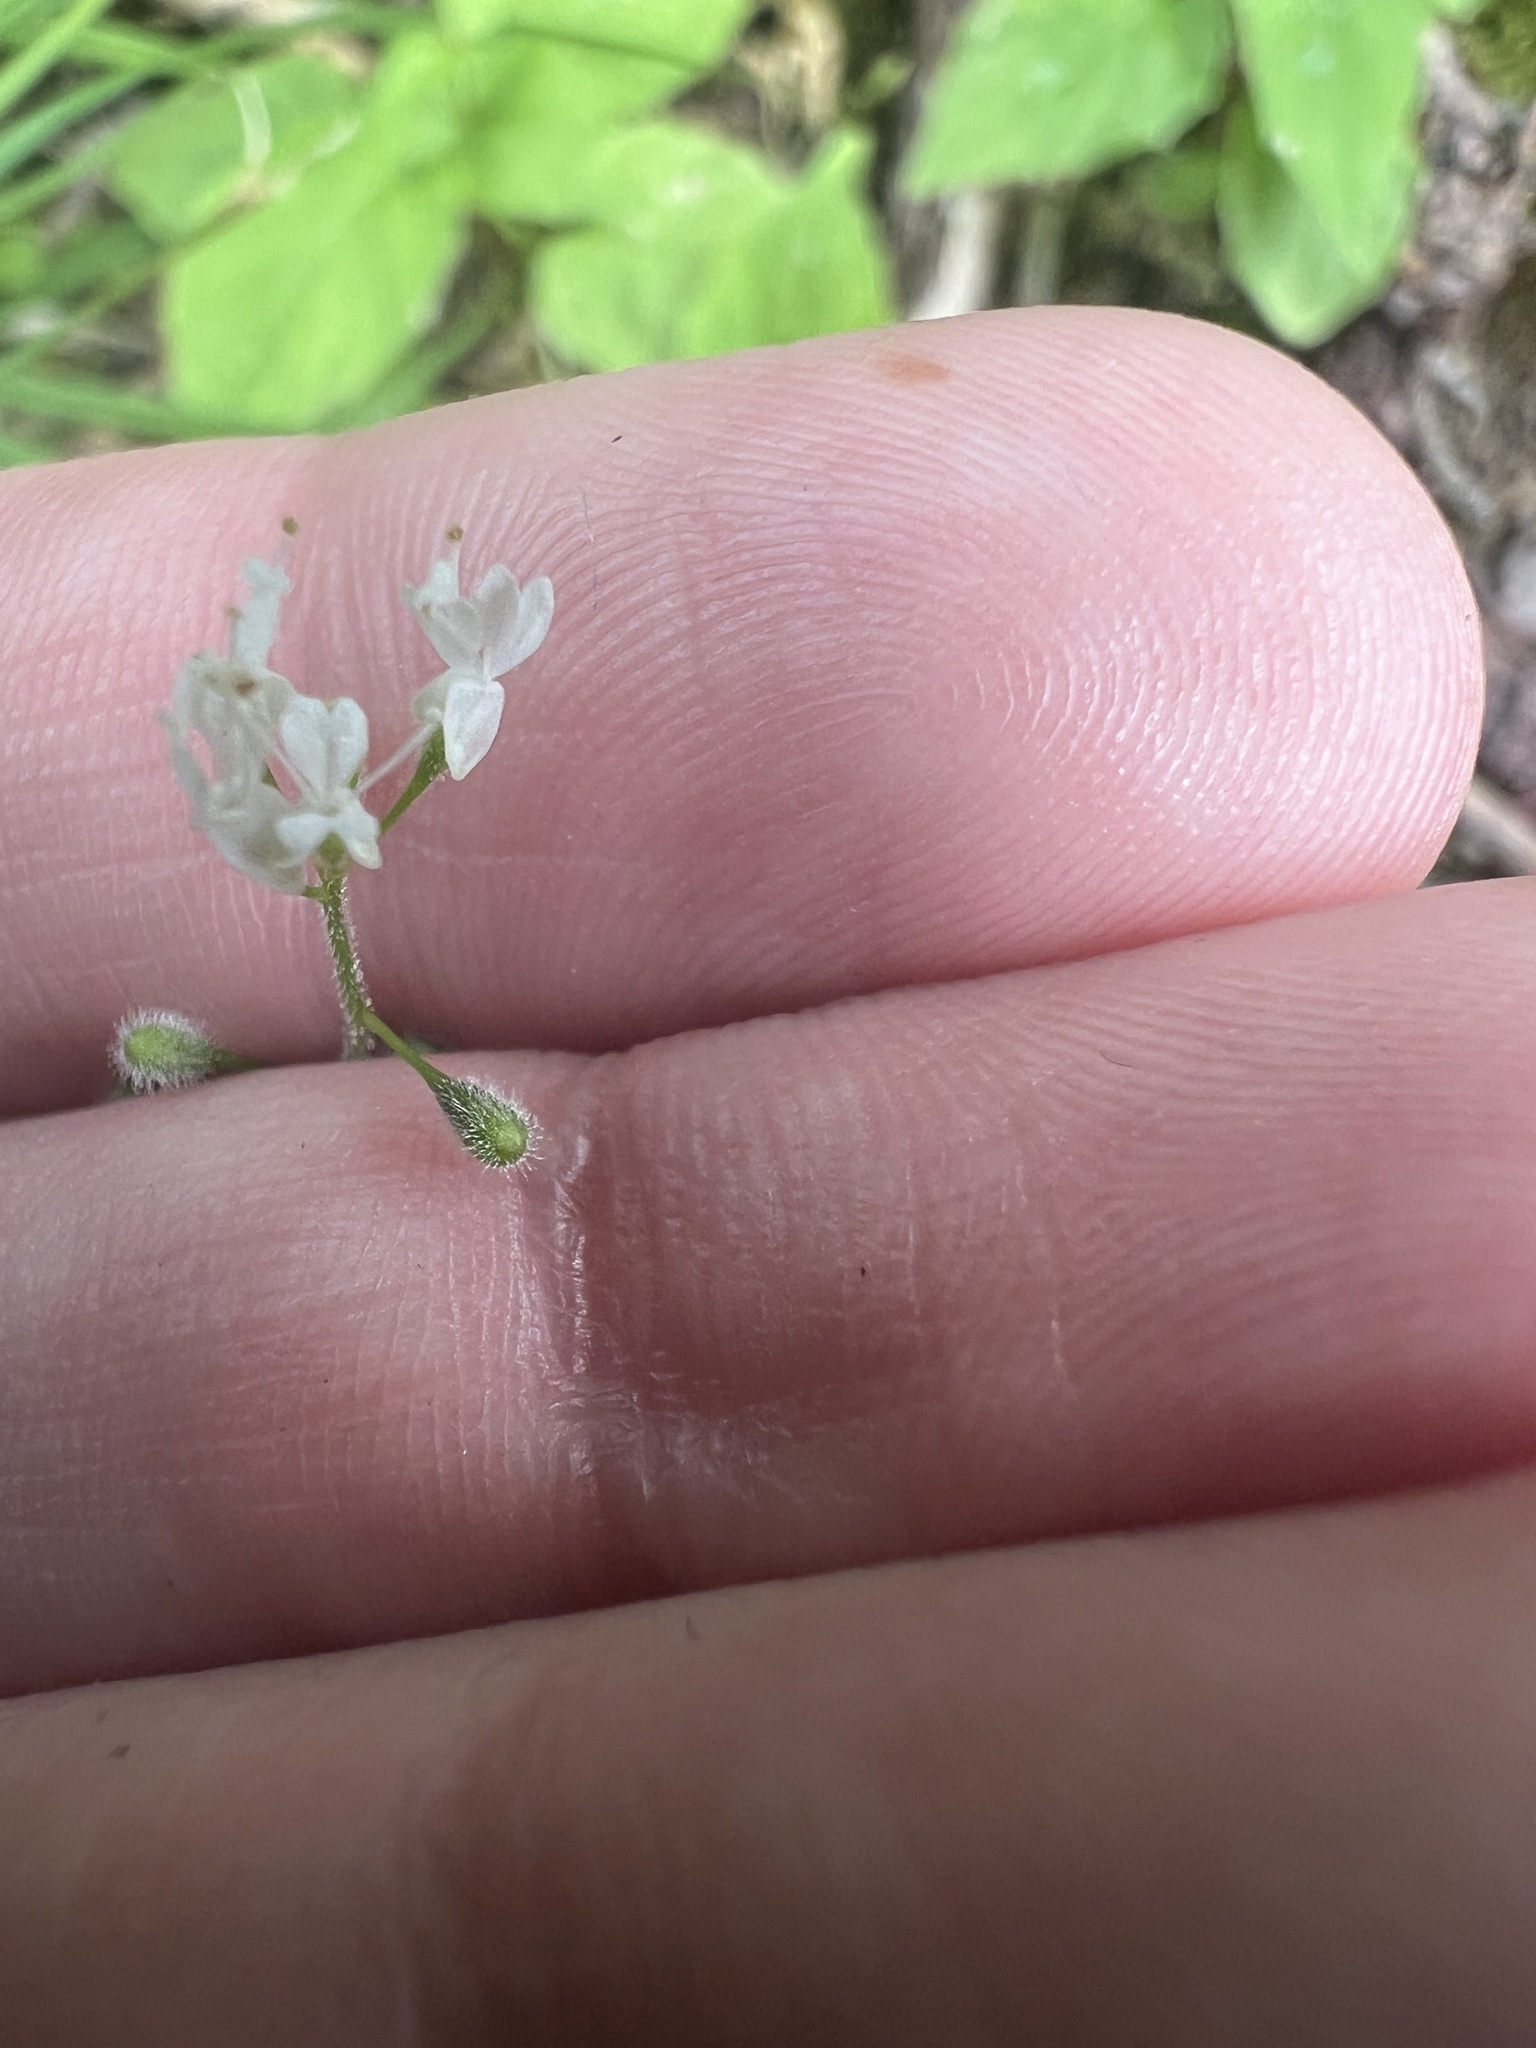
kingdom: Plantae
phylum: Tracheophyta
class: Magnoliopsida
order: Myrtales
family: Onagraceae
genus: Circaea
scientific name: Circaea alpina
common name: Alpine enchanter's-nightshade
